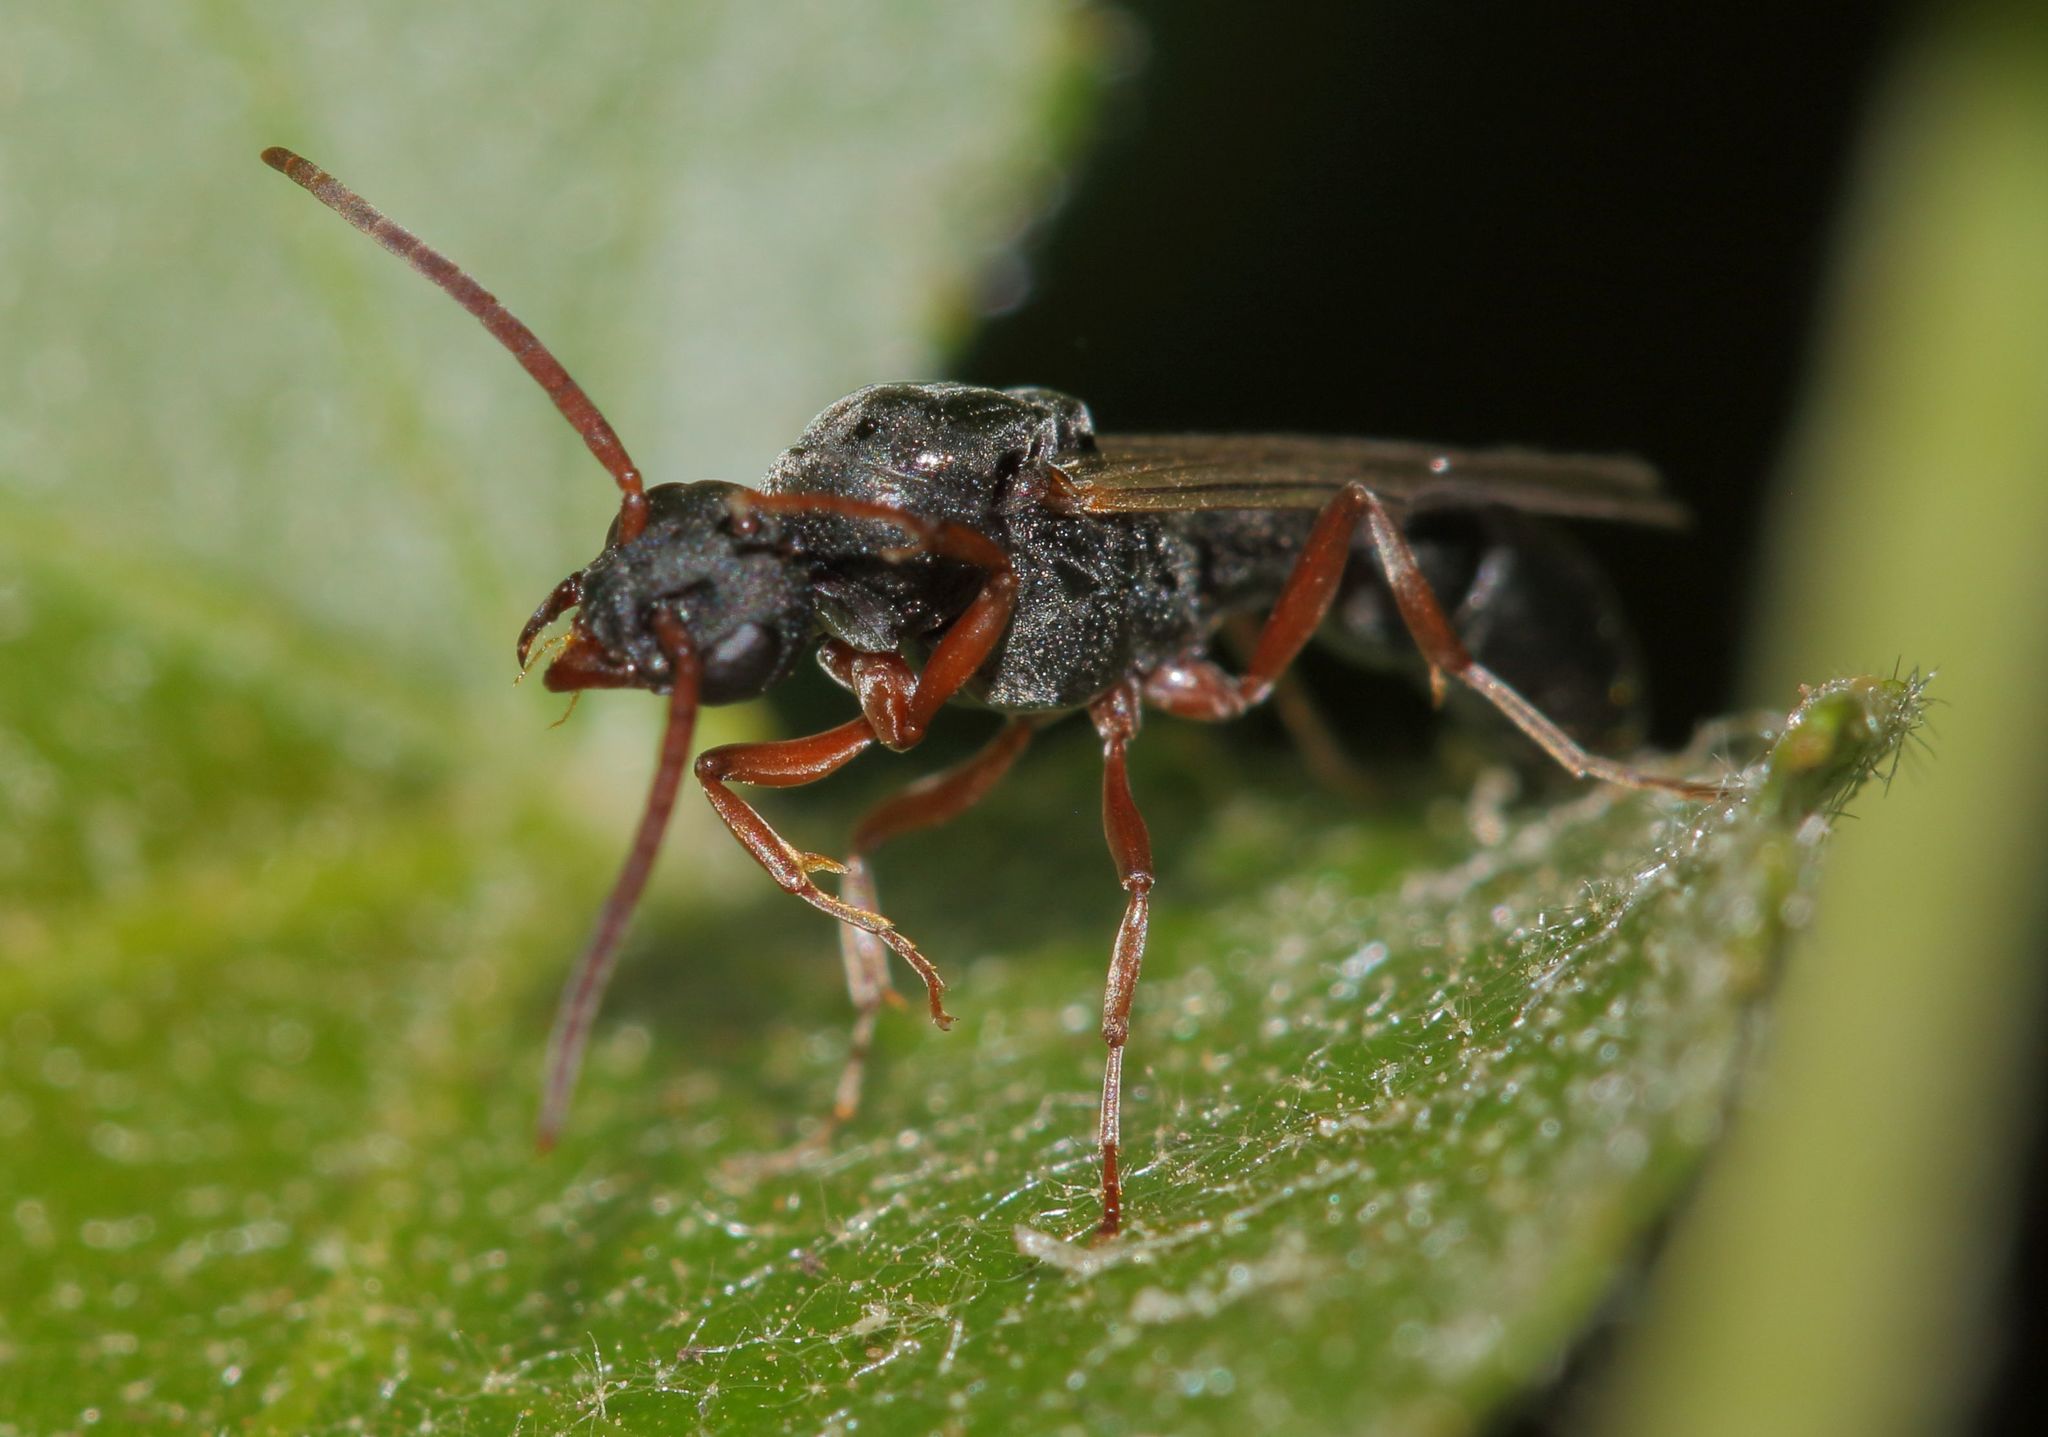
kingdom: Animalia
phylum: Arthropoda
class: Insecta
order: Hymenoptera
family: Formicidae
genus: Platythyrea
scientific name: Platythyrea modesta
